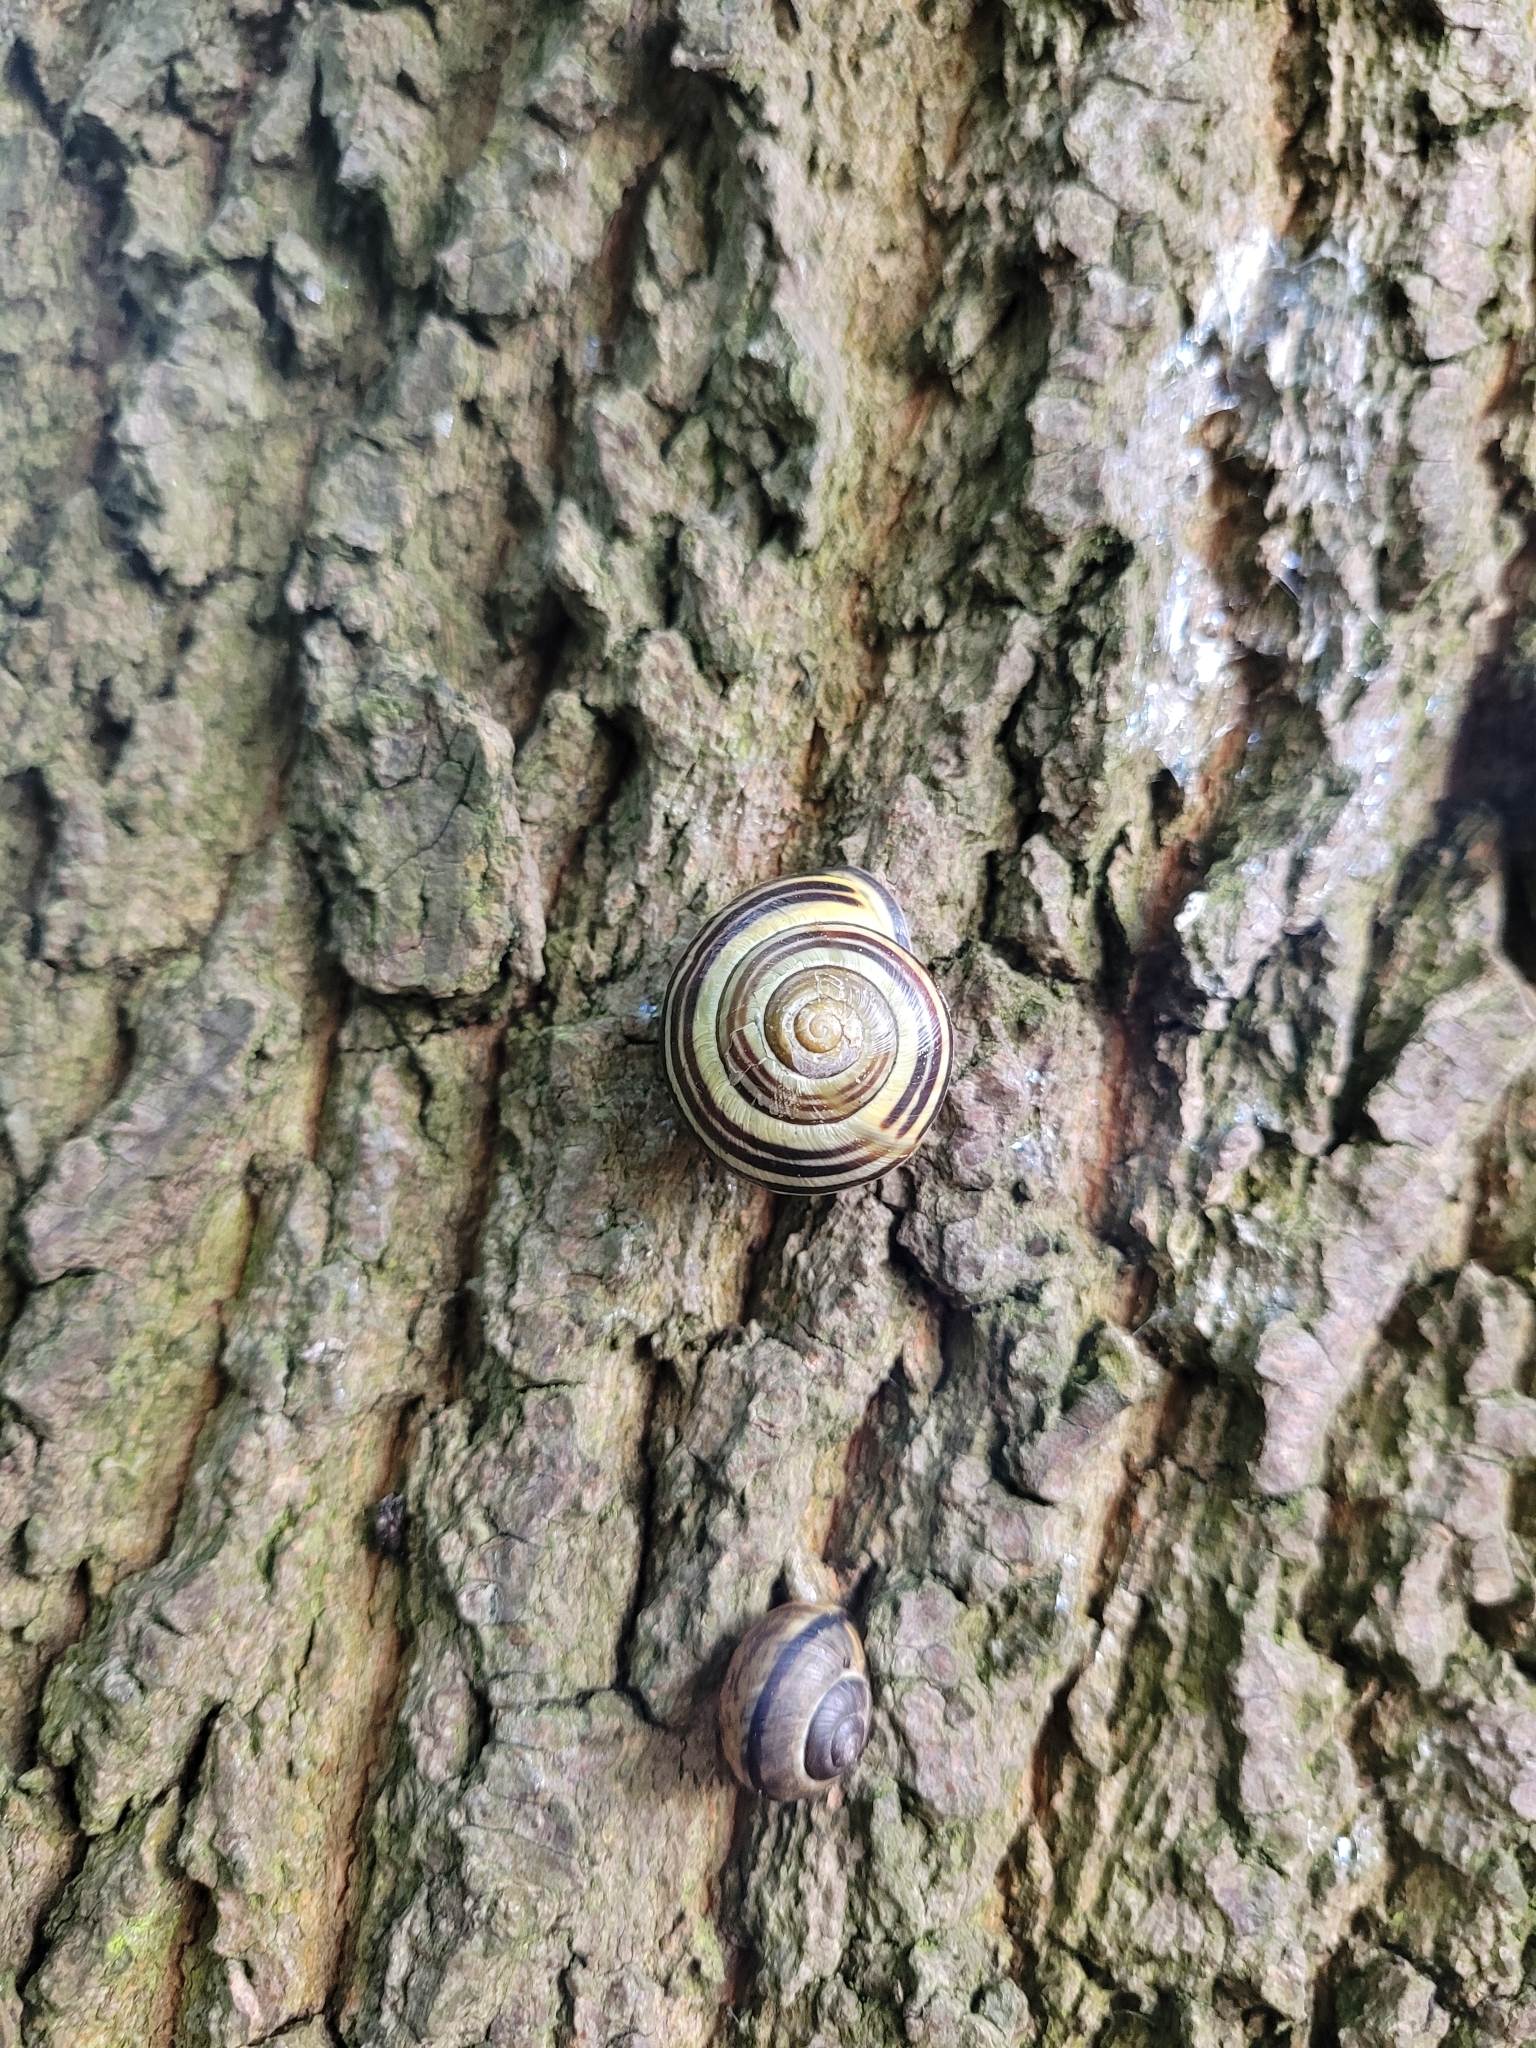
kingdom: Animalia
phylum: Mollusca
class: Gastropoda
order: Stylommatophora
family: Helicidae
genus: Cepaea
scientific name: Cepaea nemoralis
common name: Grovesnail
